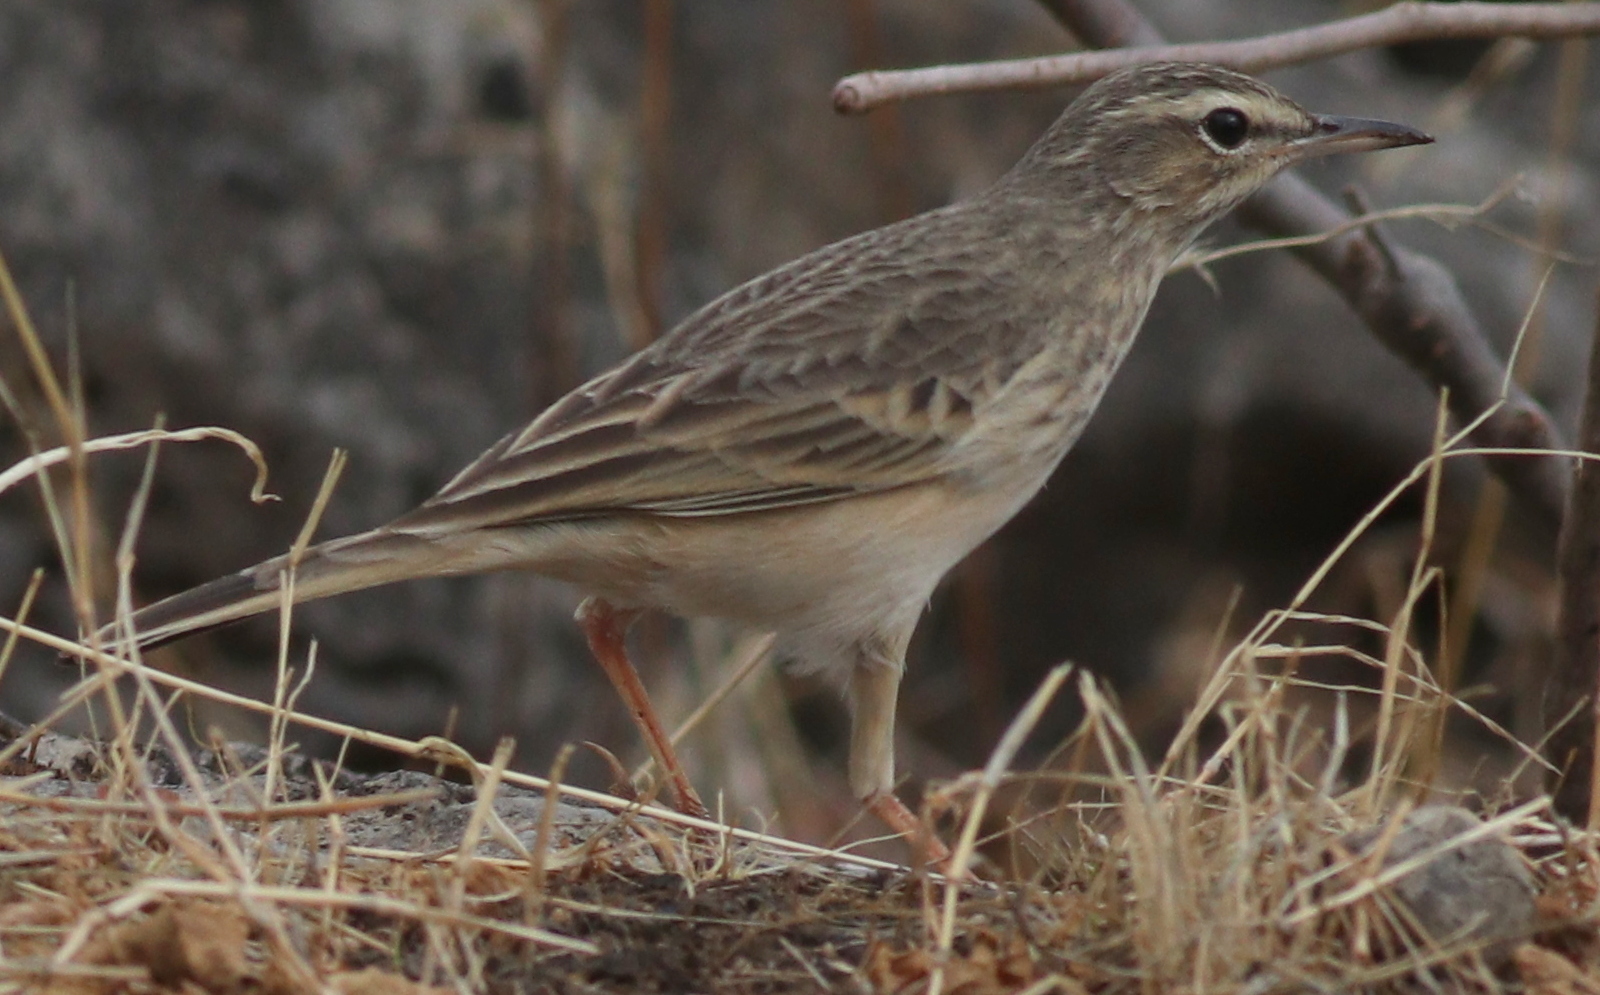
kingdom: Animalia
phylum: Chordata
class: Aves
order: Passeriformes
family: Motacillidae
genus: Anthus
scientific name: Anthus similis
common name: Long-billed pipit
